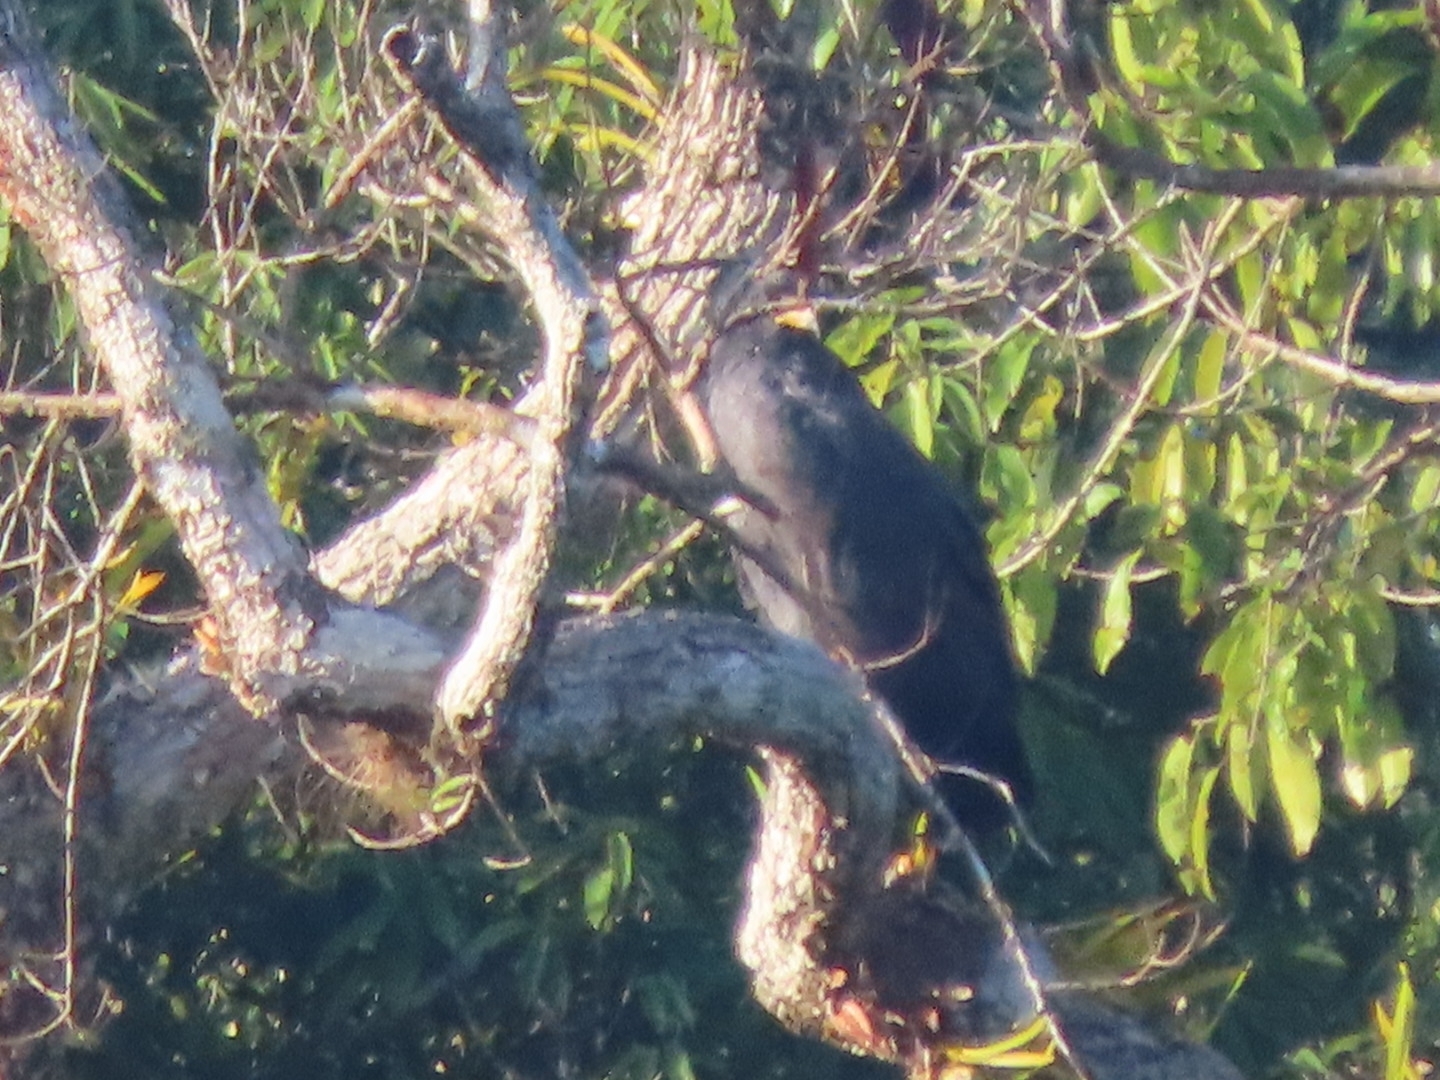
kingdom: Animalia
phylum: Chordata
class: Aves
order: Accipitriformes
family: Accipitridae
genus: Buteogallus
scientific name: Buteogallus anthracinus
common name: Common black hawk
